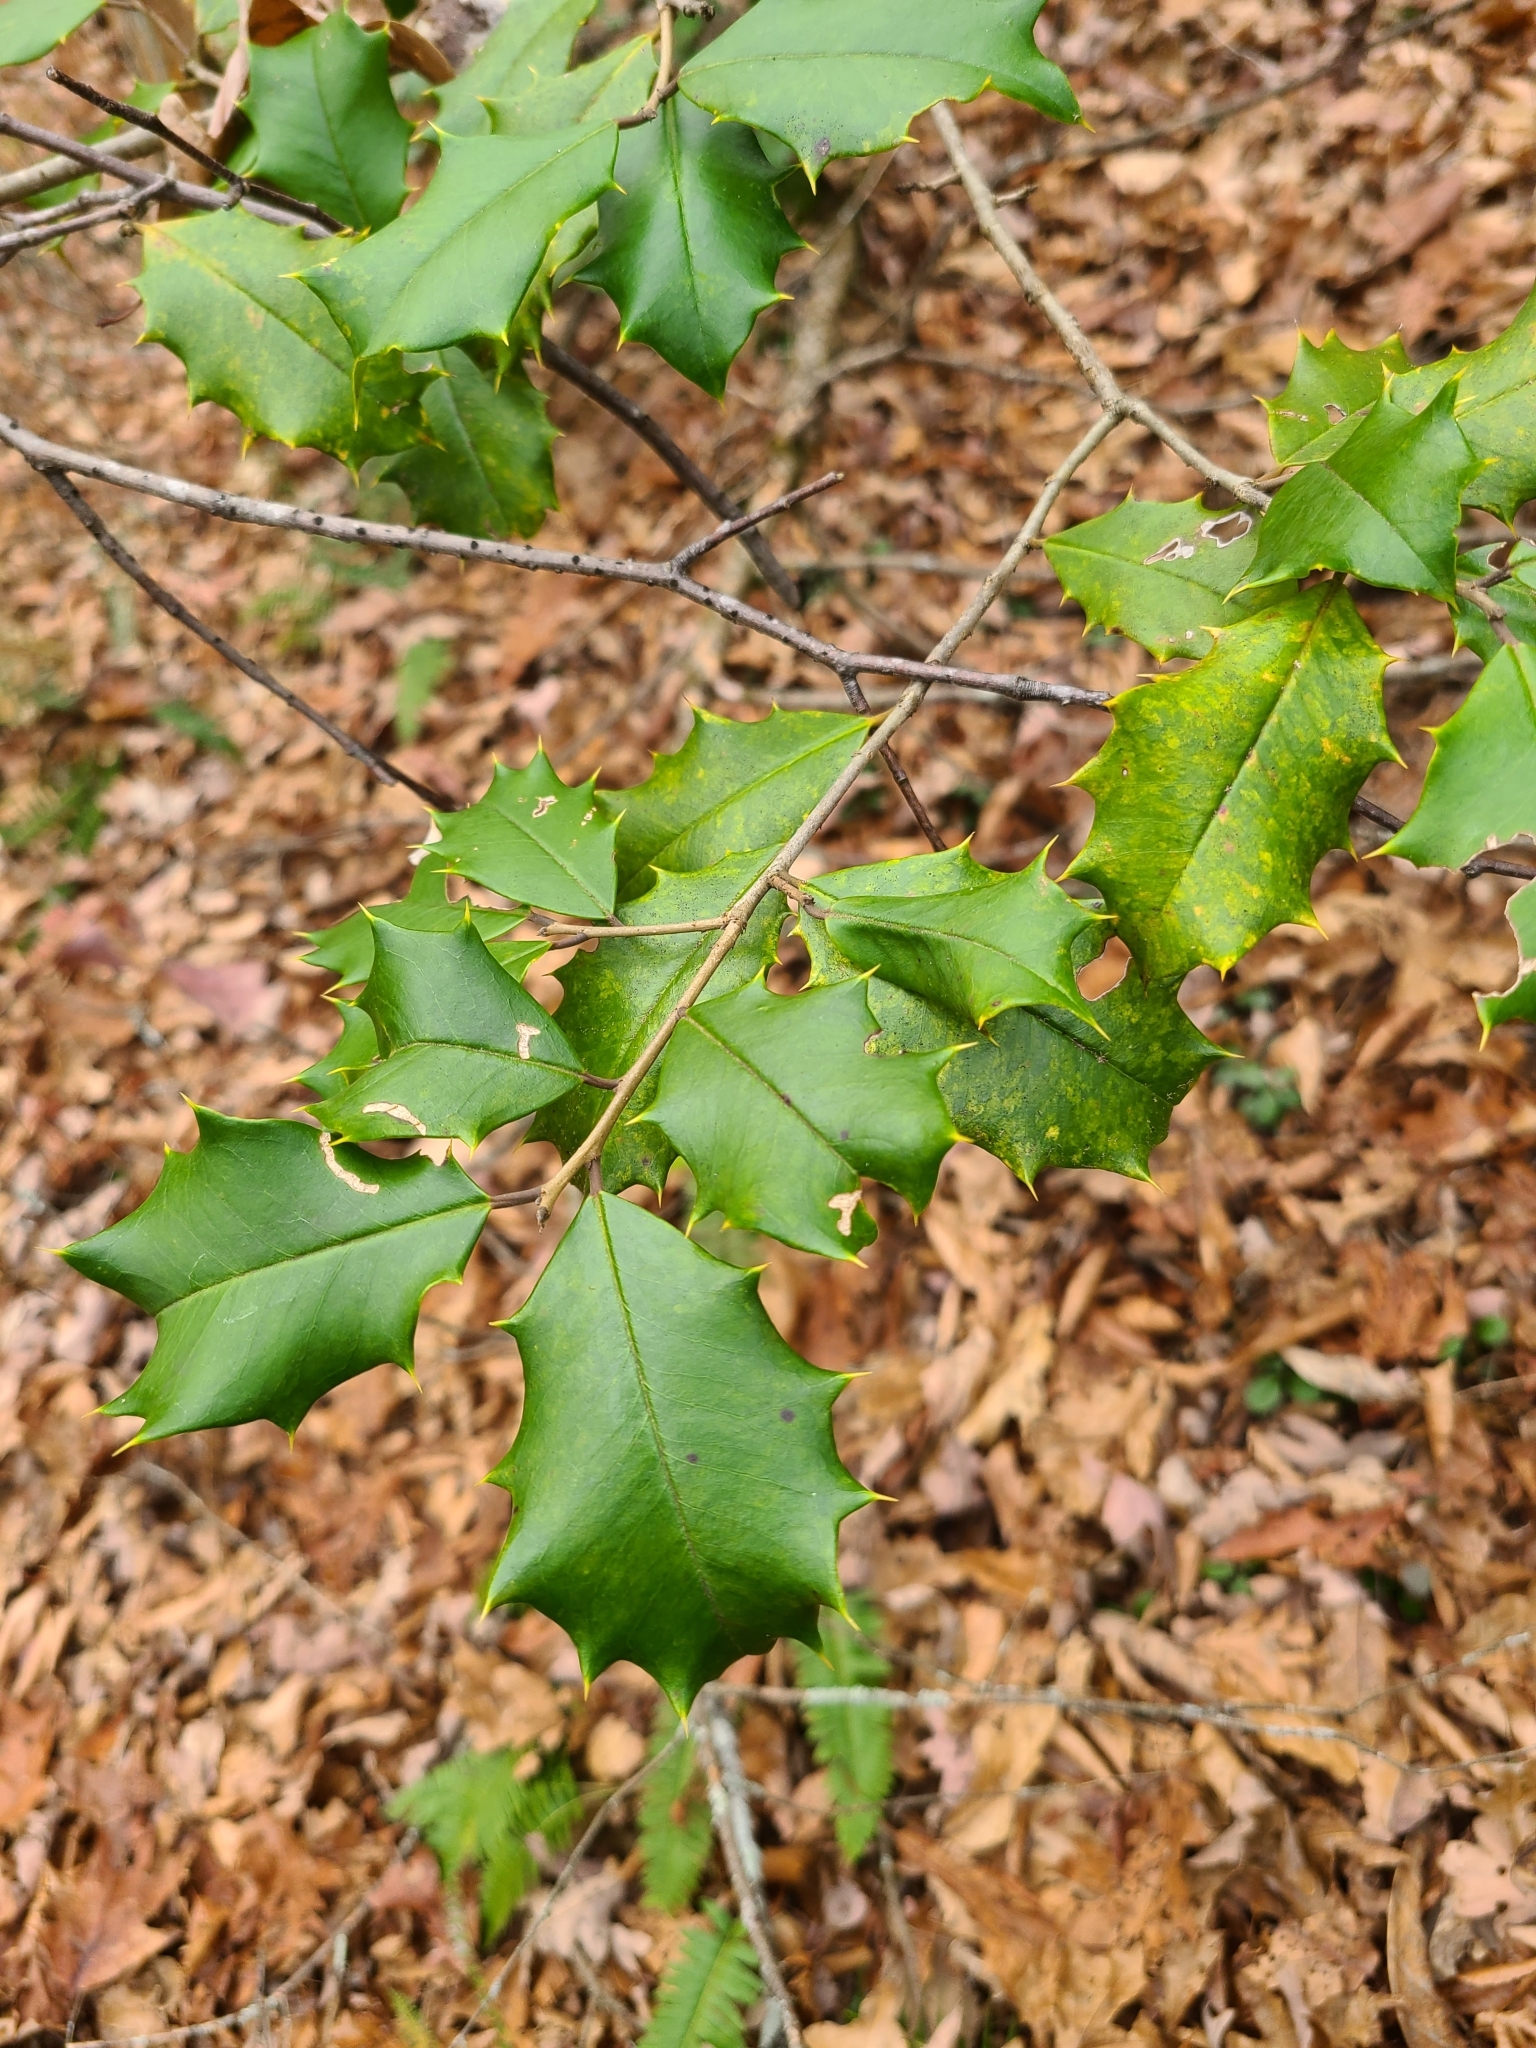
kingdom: Plantae
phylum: Tracheophyta
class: Magnoliopsida
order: Aquifoliales
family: Aquifoliaceae
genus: Ilex
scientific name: Ilex opaca
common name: American holly
